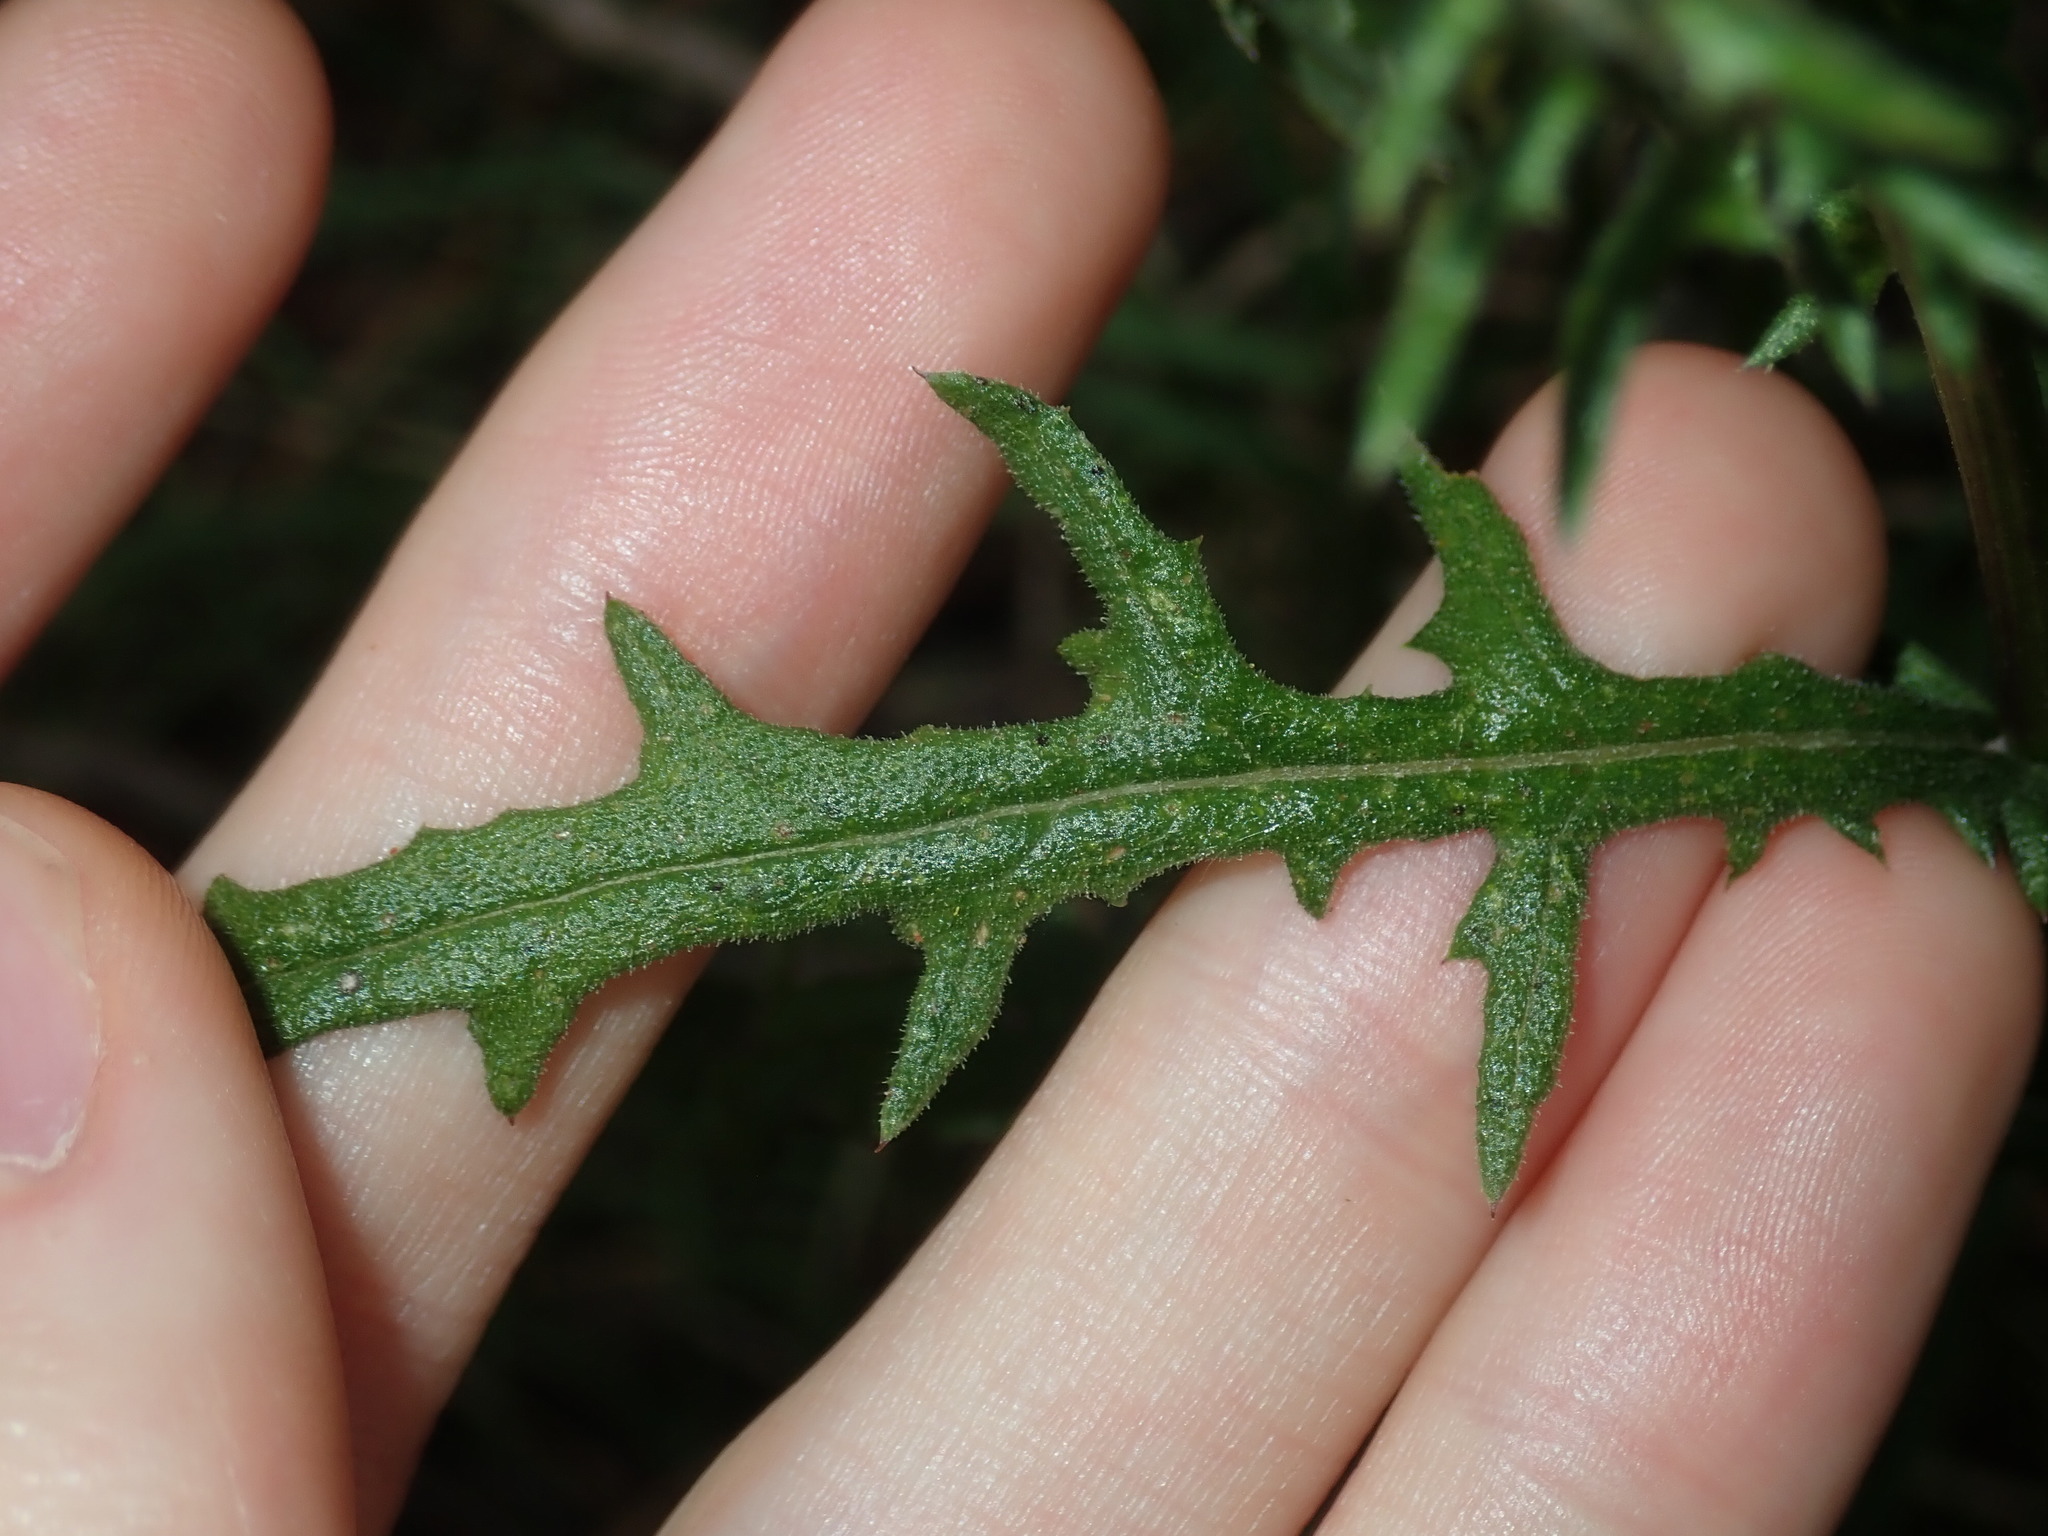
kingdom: Plantae
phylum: Tracheophyta
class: Magnoliopsida
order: Asterales
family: Asteraceae
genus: Senecio
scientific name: Senecio hispidulus
